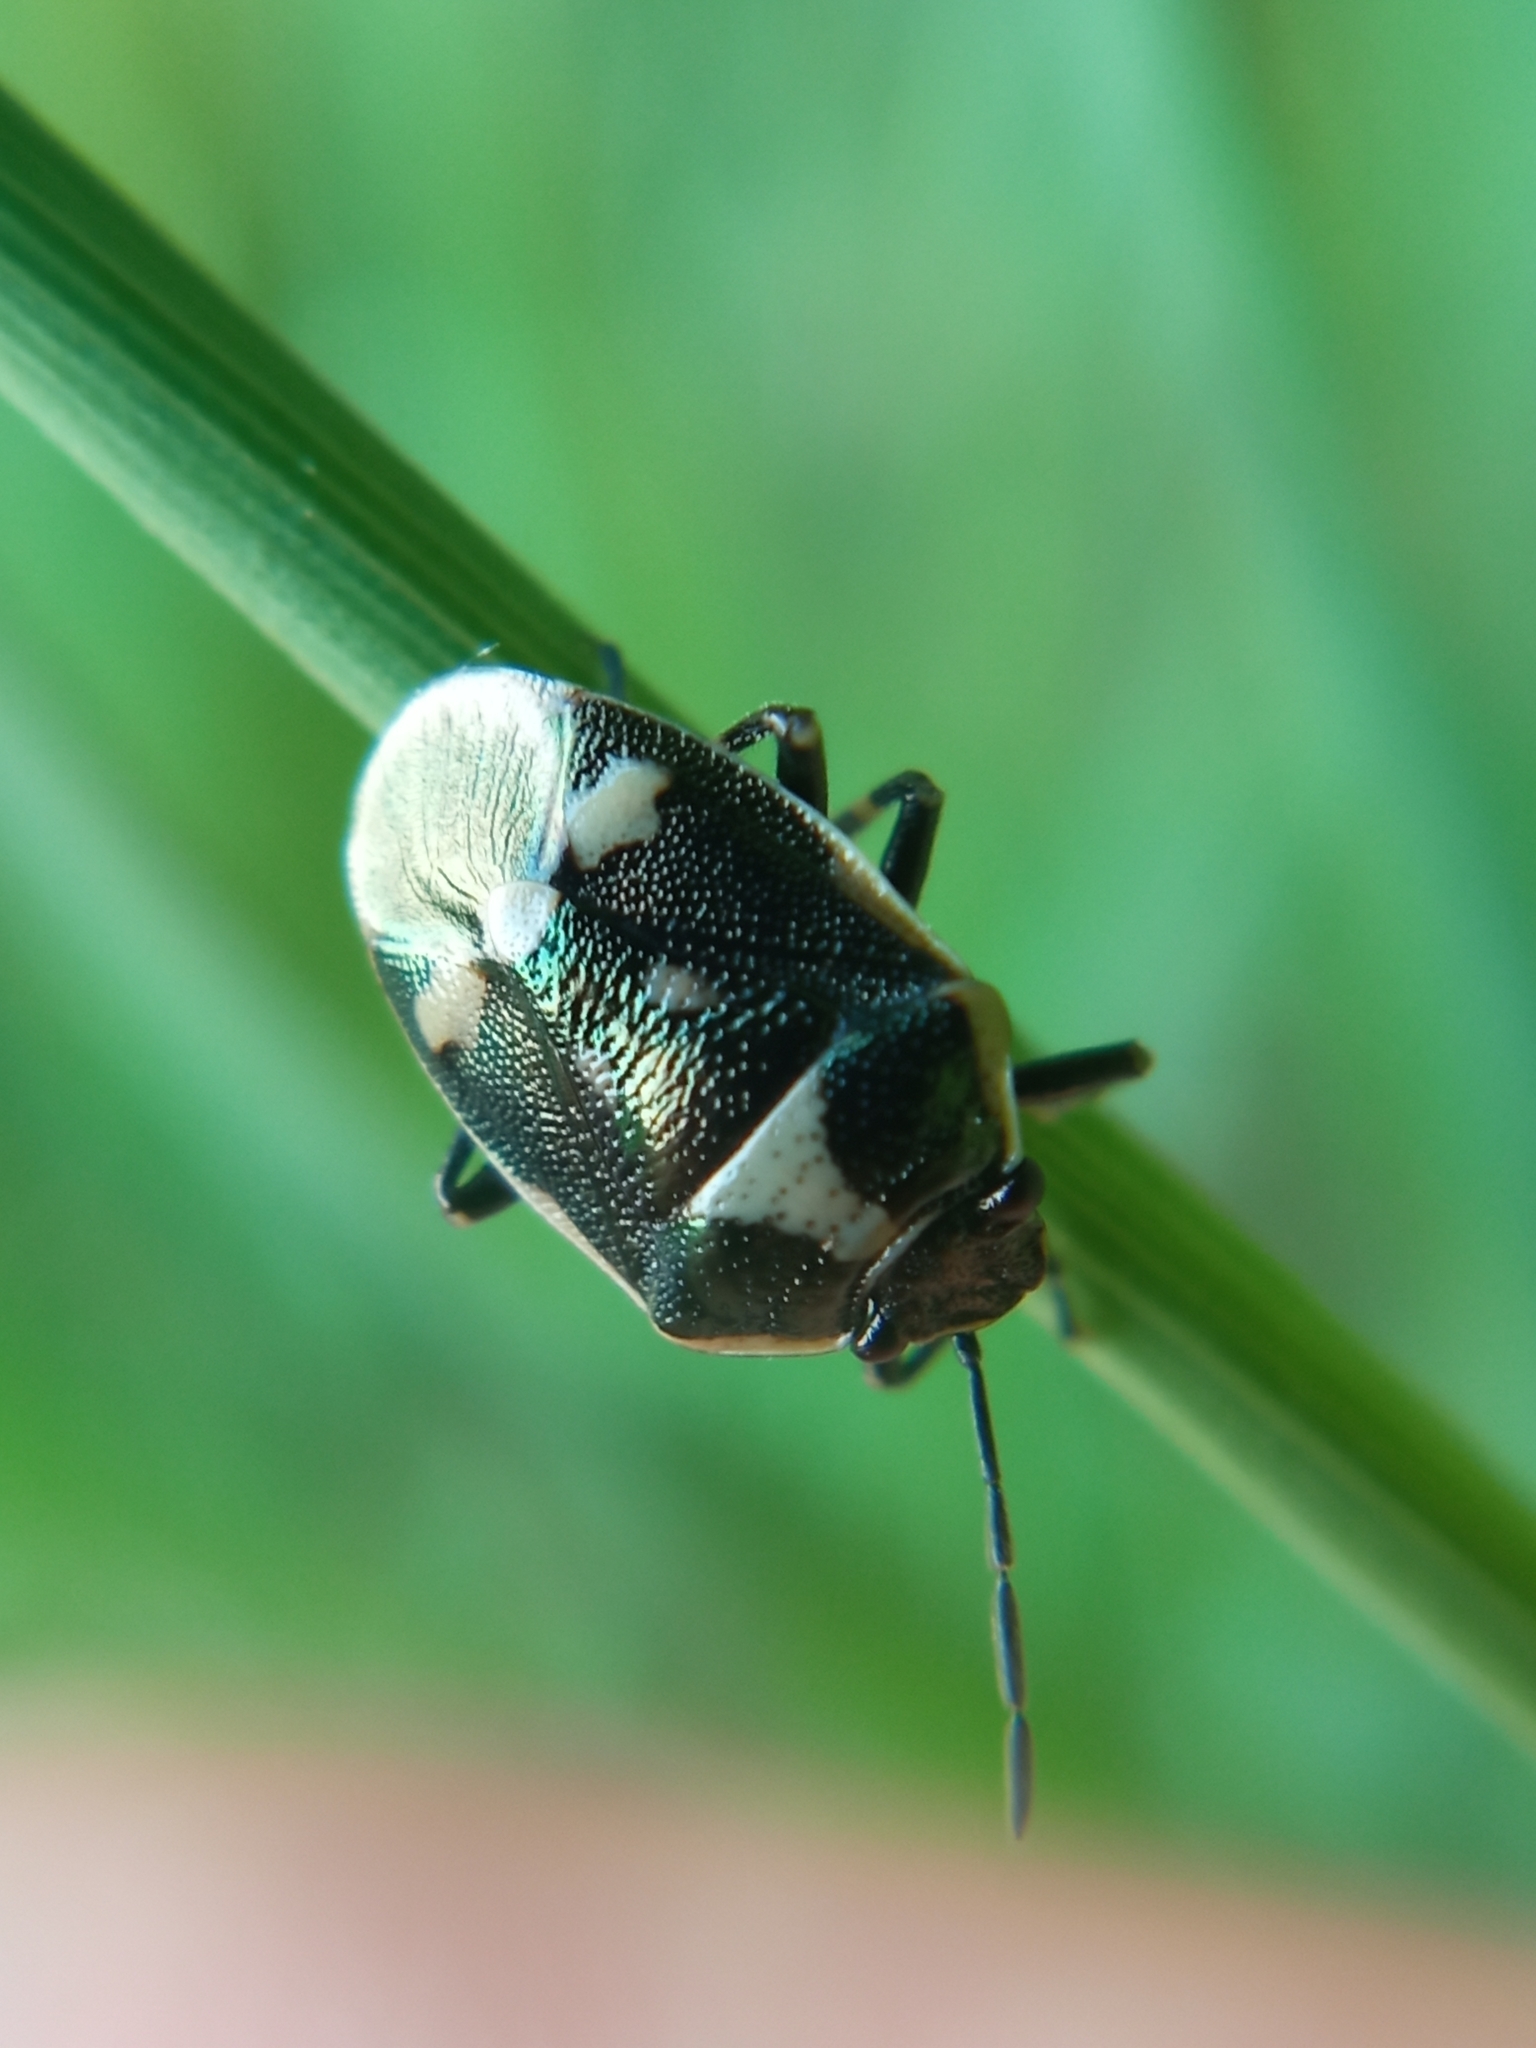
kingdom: Animalia
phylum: Arthropoda
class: Insecta
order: Hemiptera
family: Pentatomidae
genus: Eurydema
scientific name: Eurydema oleracea
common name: Cabbage bug
